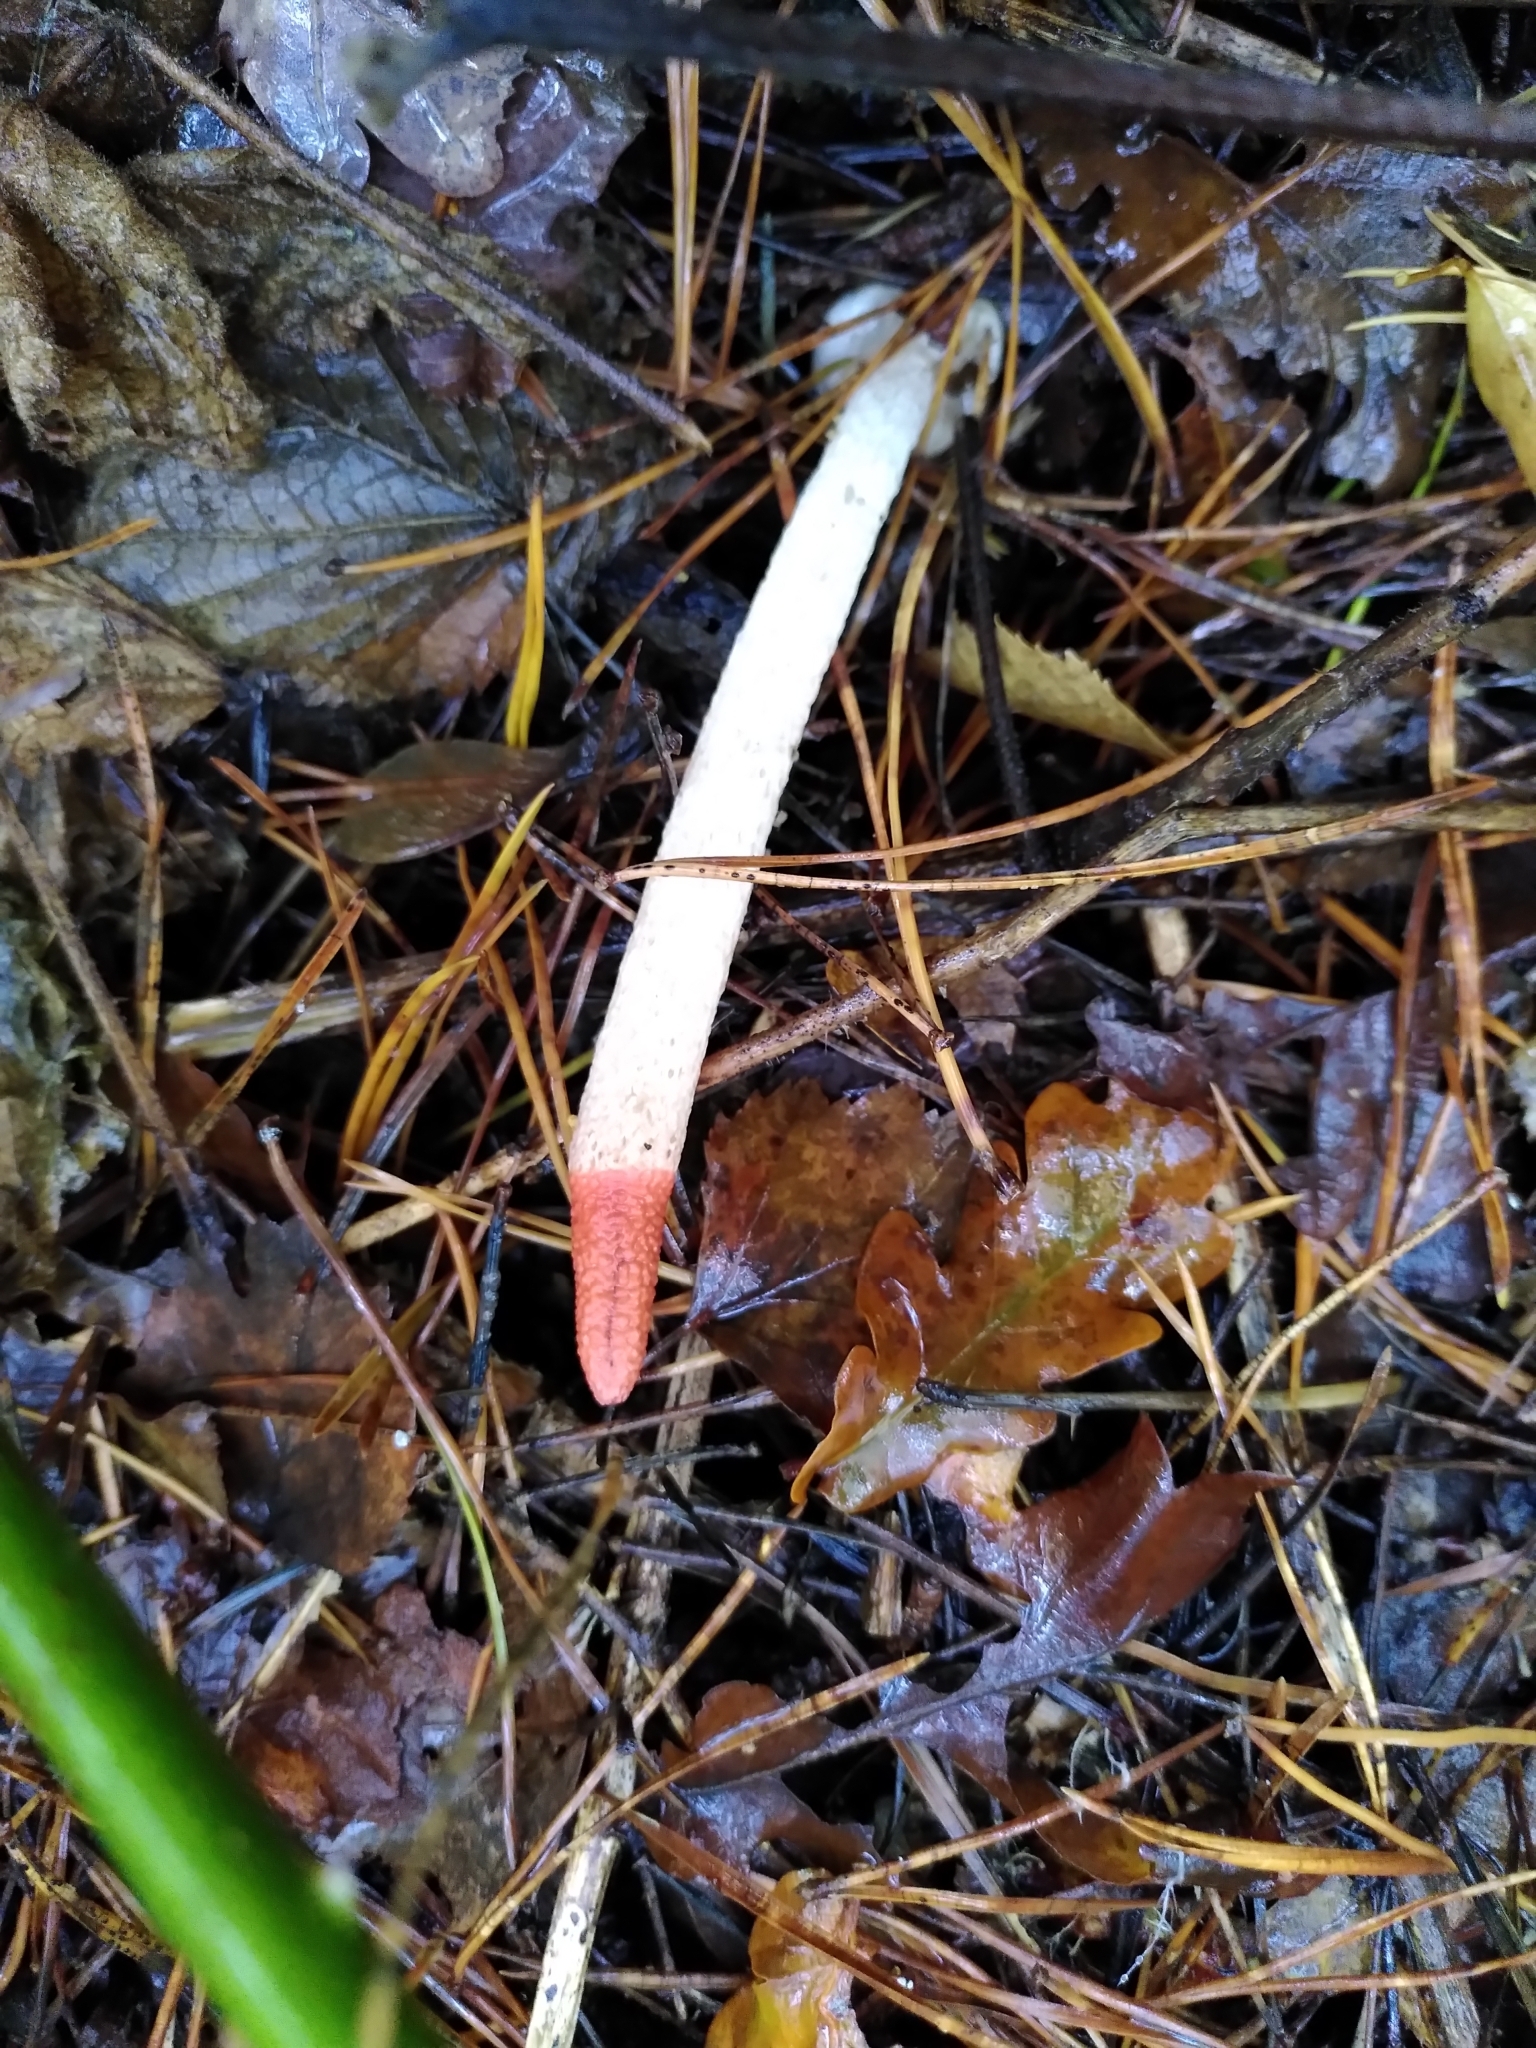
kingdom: Fungi
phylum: Basidiomycota
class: Agaricomycetes
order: Phallales
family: Phallaceae
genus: Mutinus
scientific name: Mutinus caninus
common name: Dog stinkhorn
